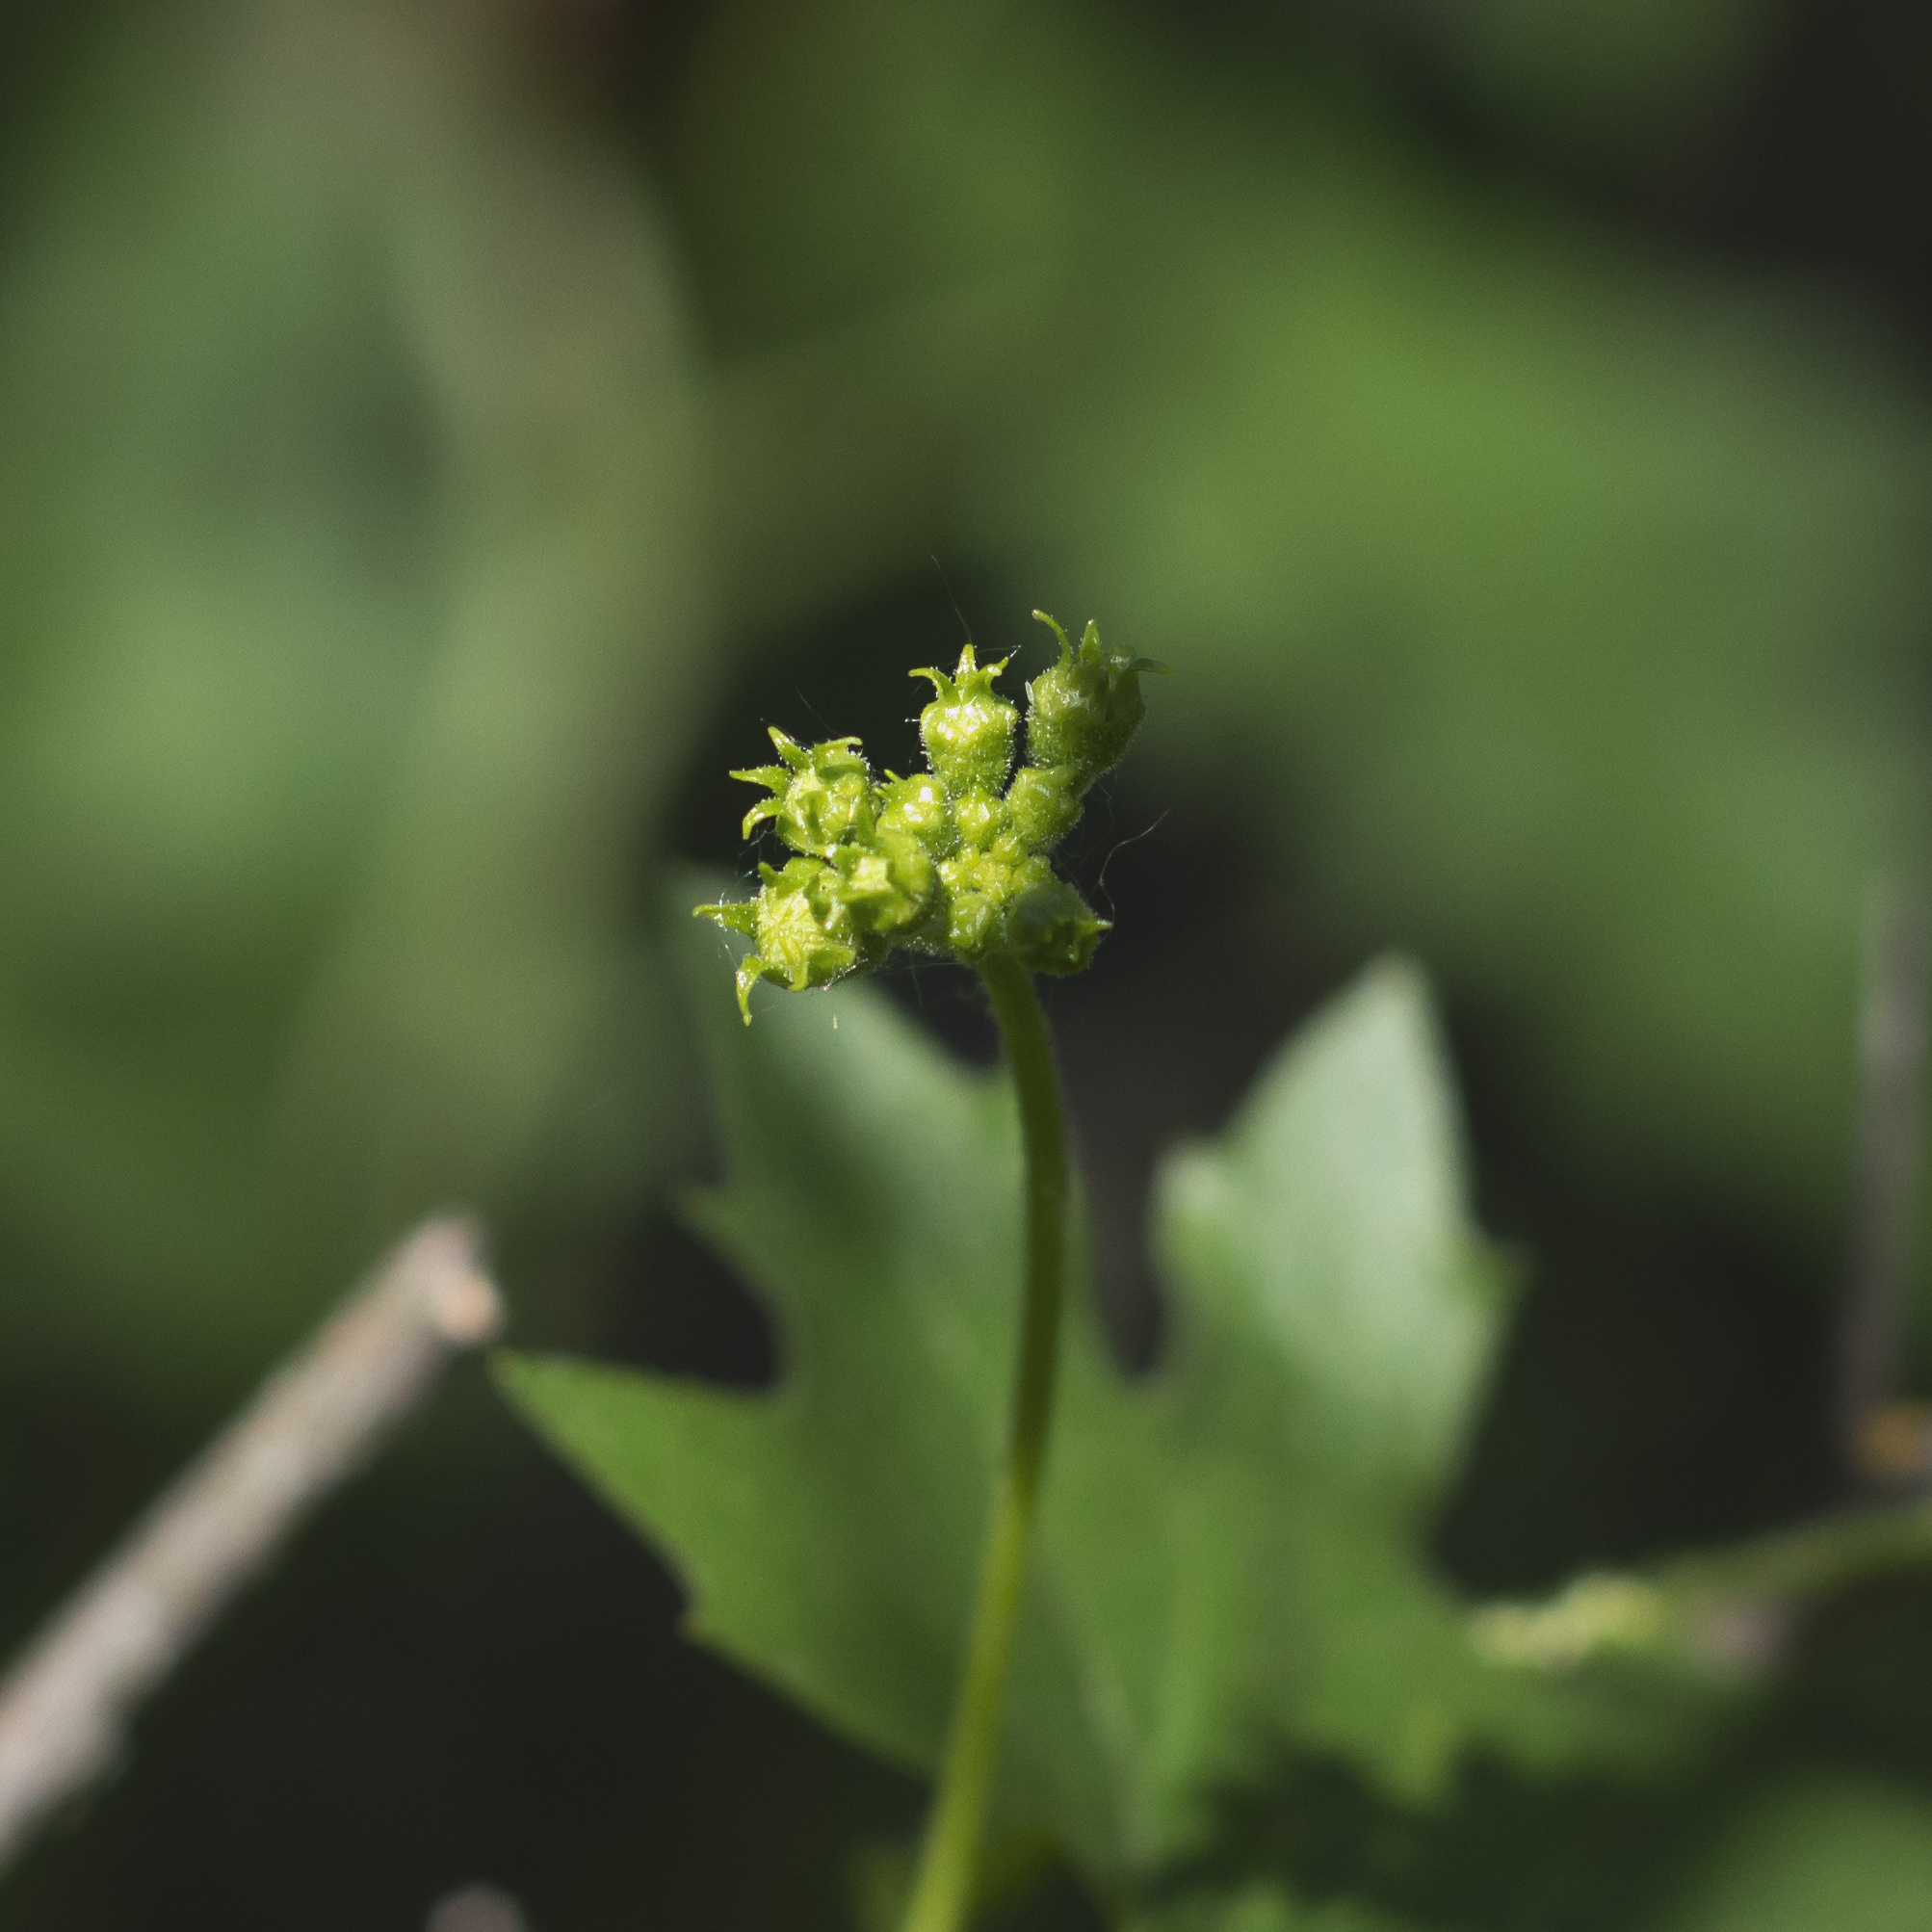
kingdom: Plantae
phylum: Tracheophyta
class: Magnoliopsida
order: Cucurbitales
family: Cucurbitaceae
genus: Bryonia
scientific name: Bryonia alba
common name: White bryony
